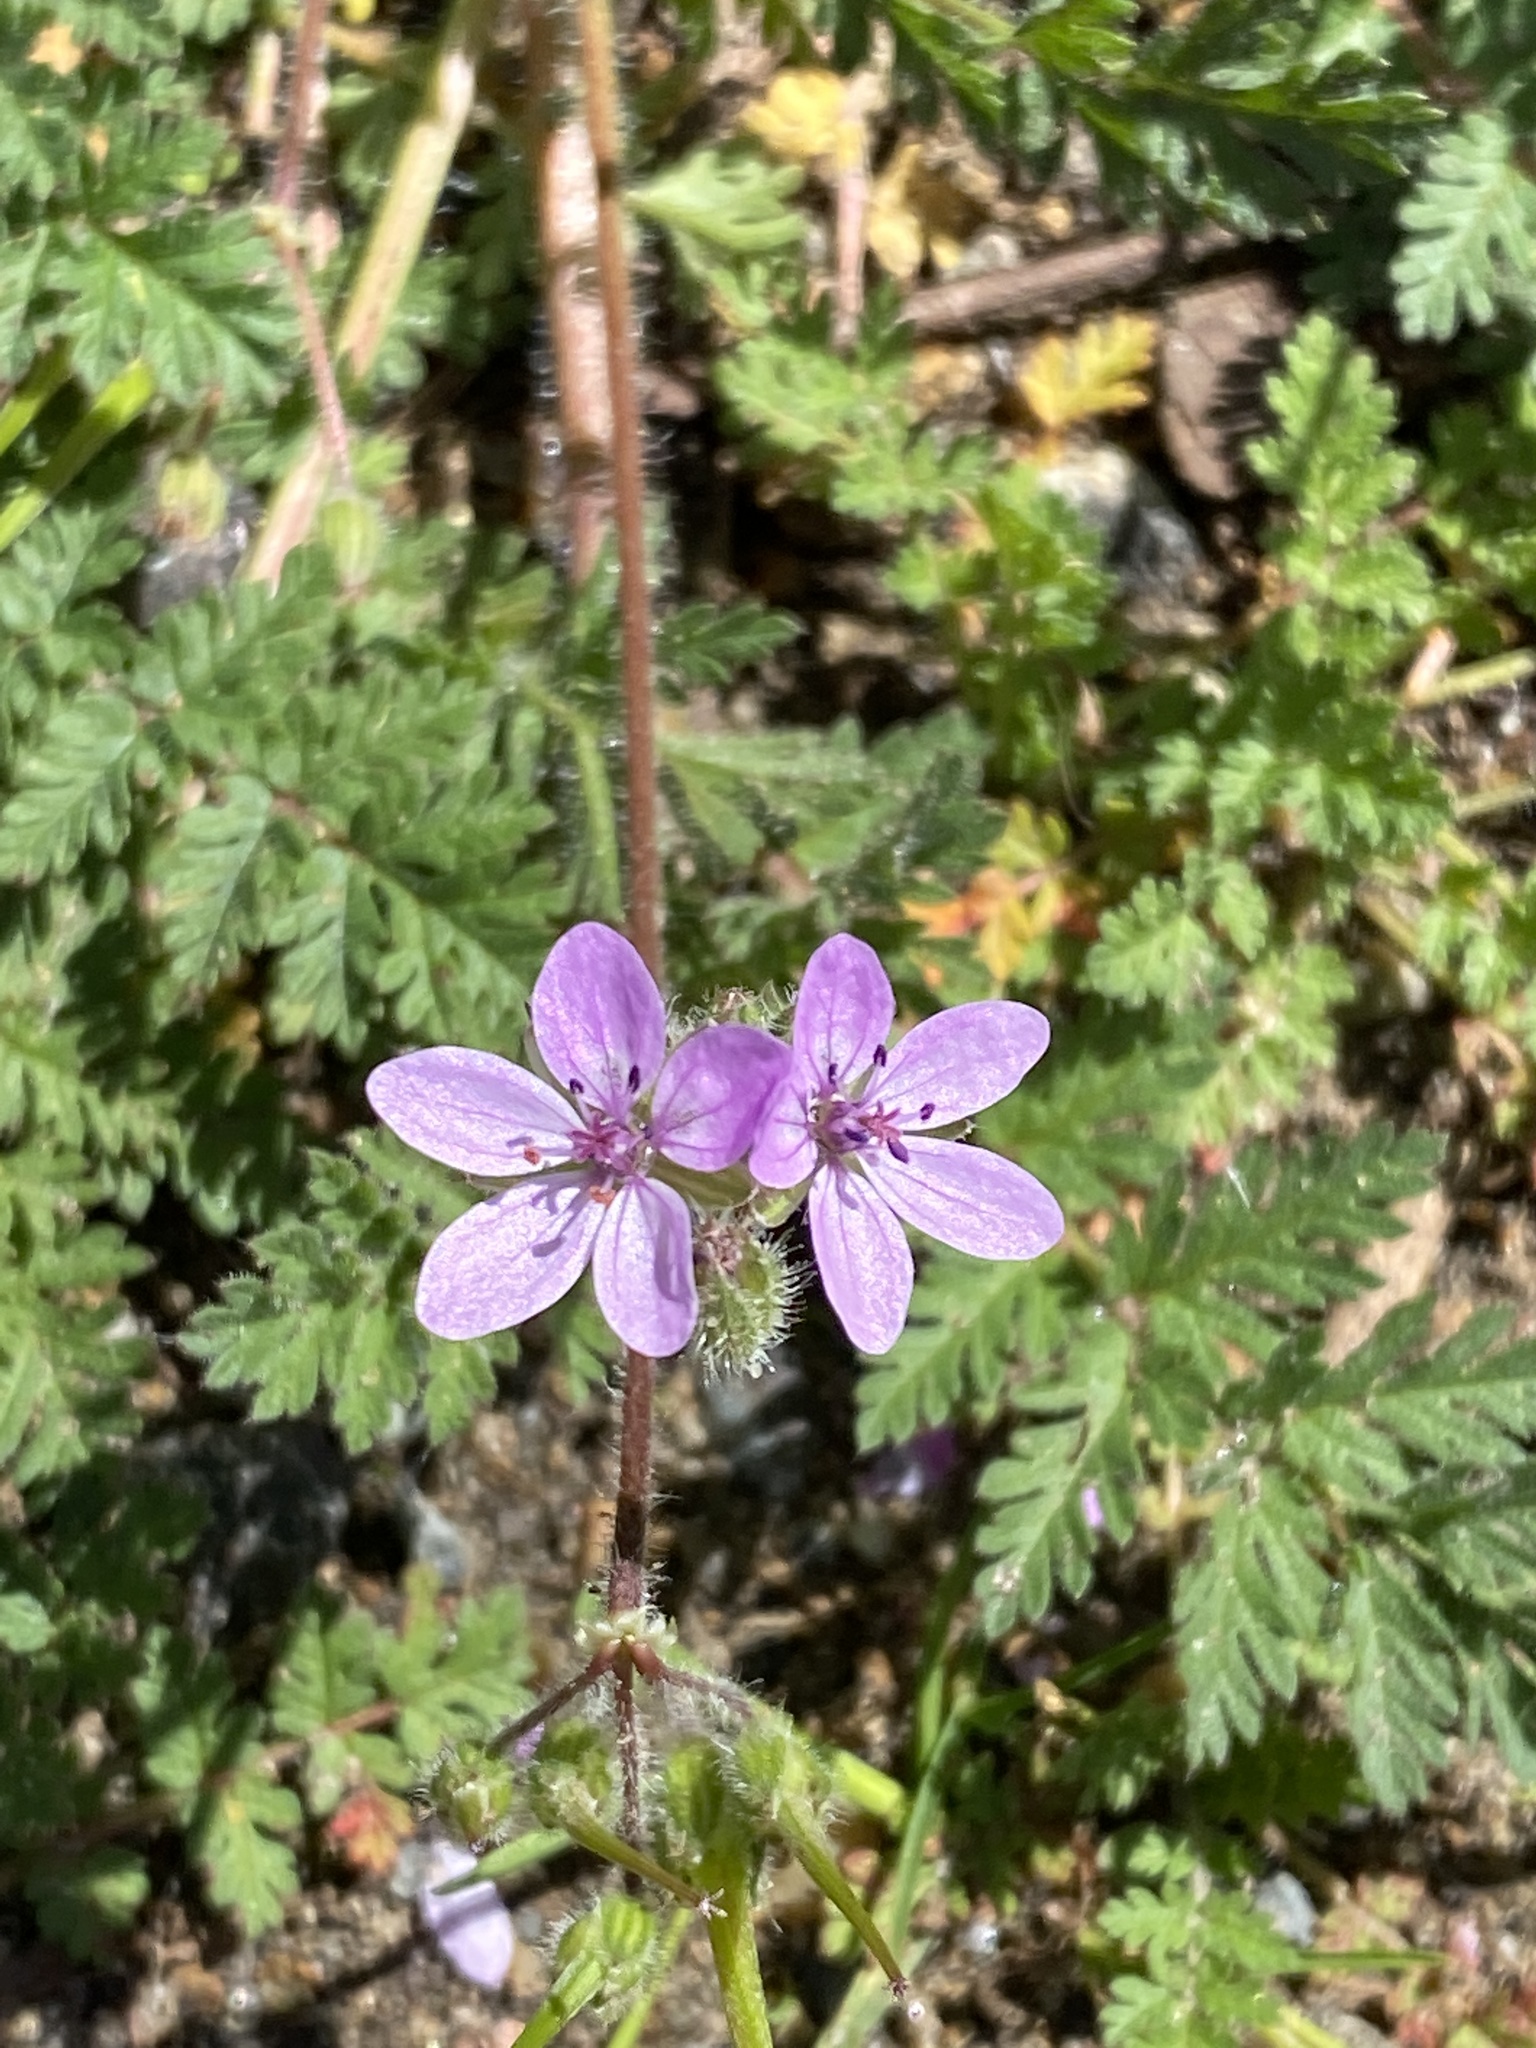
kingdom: Plantae
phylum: Tracheophyta
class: Magnoliopsida
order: Geraniales
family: Geraniaceae
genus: Erodium
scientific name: Erodium cicutarium
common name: Common stork's-bill
